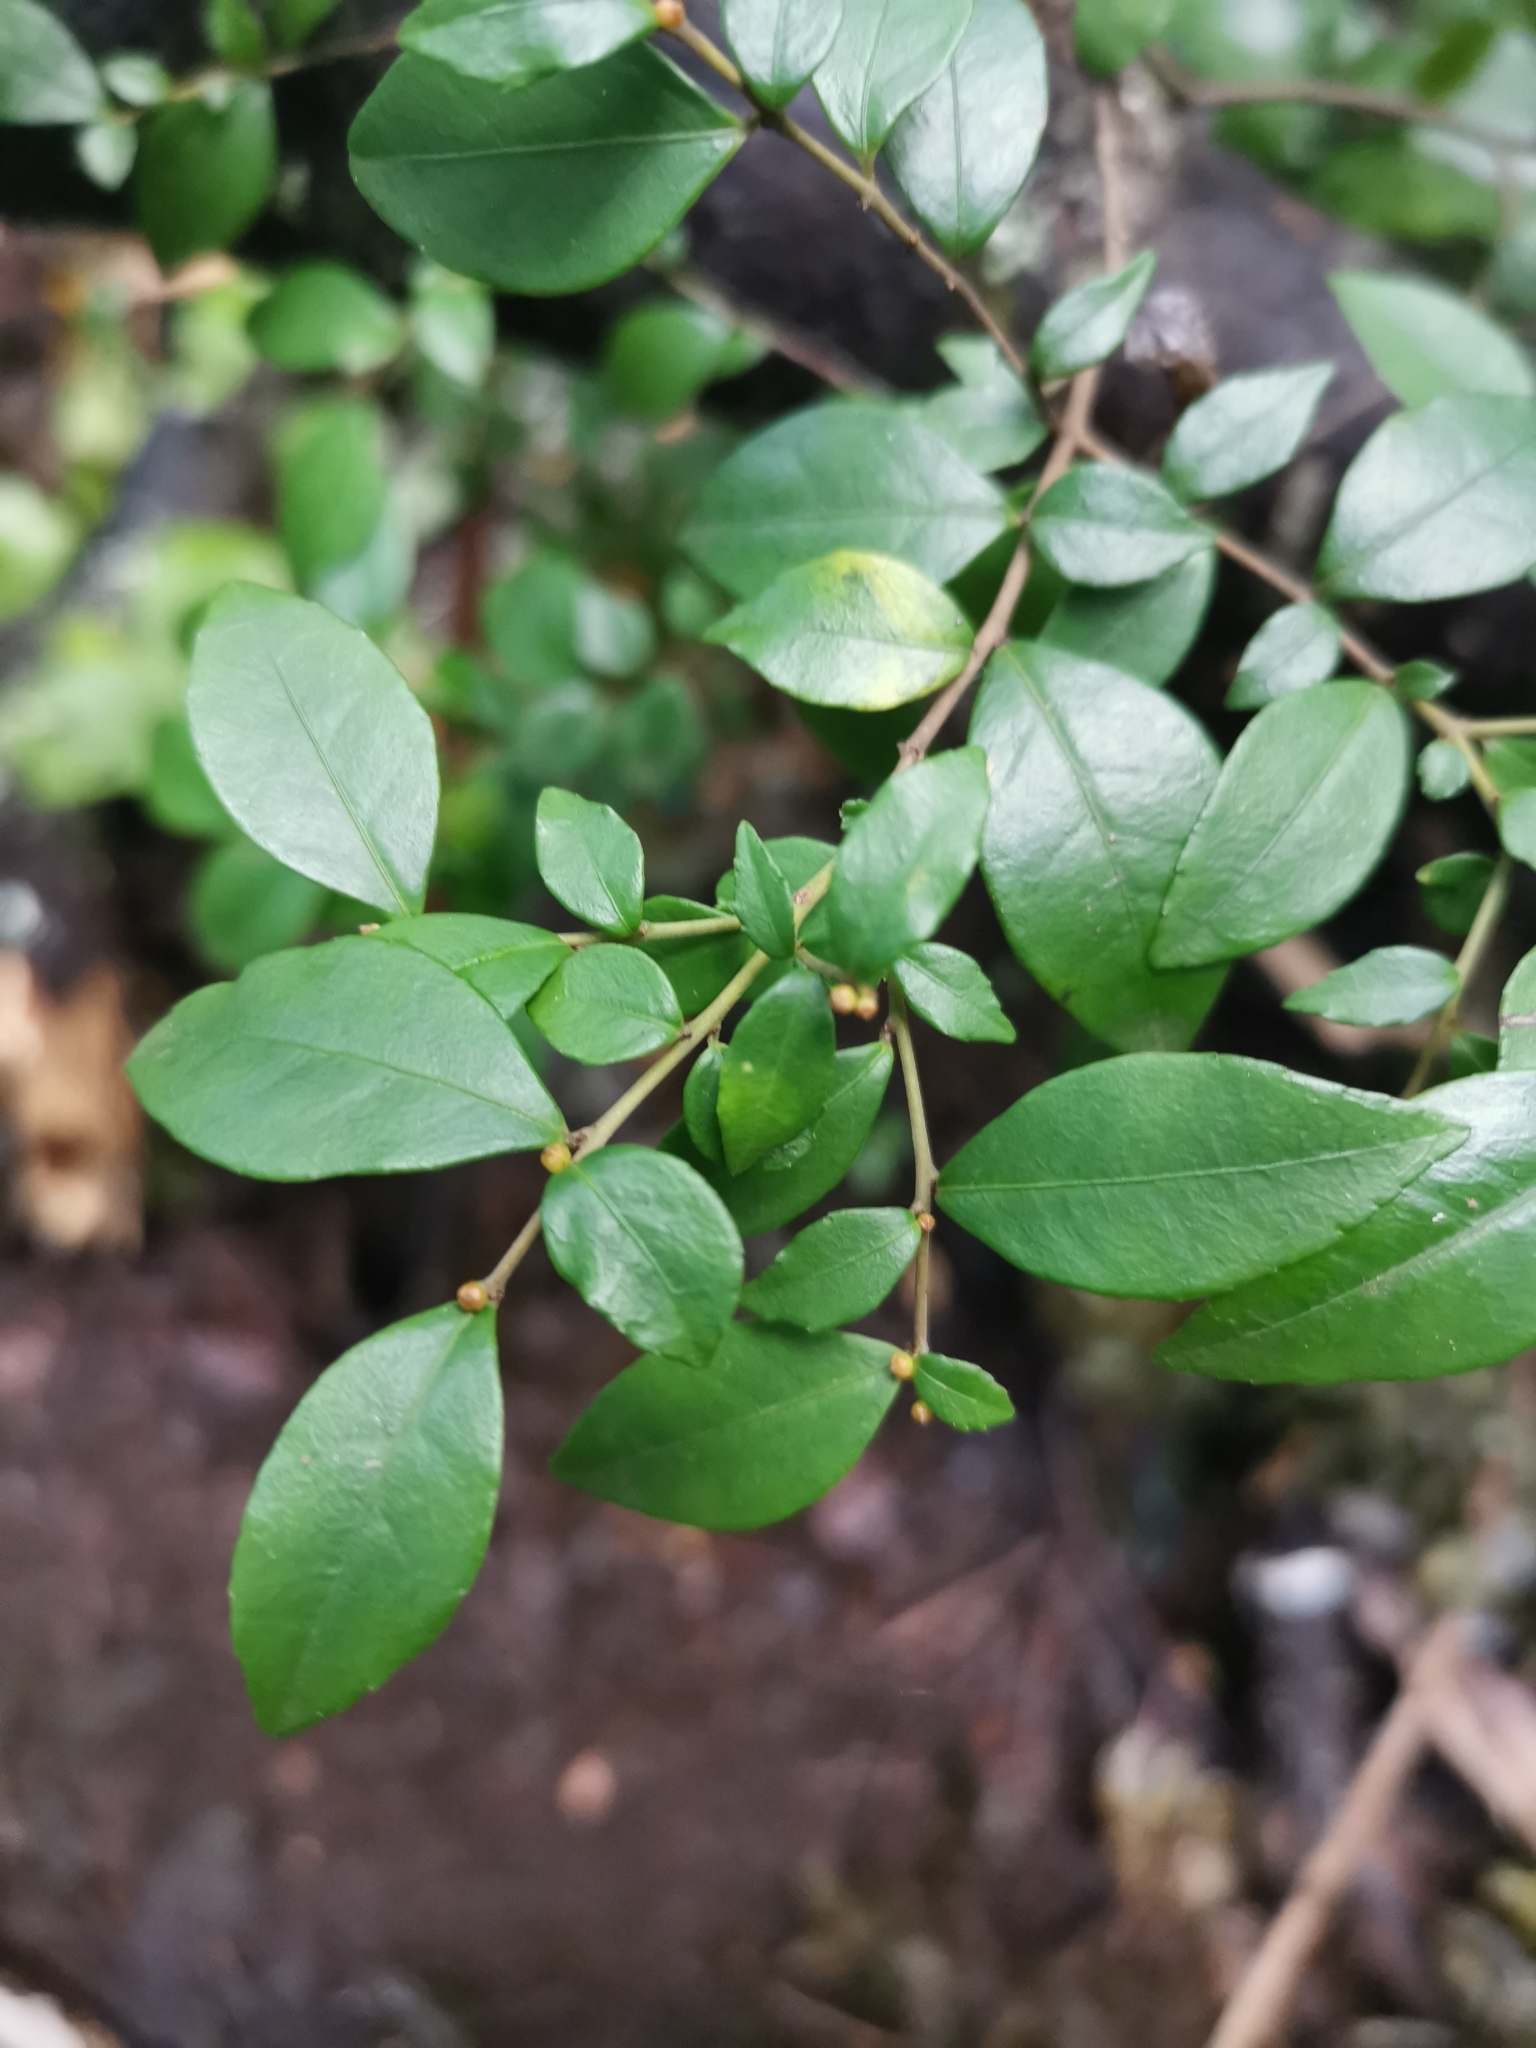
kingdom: Plantae
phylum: Tracheophyta
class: Magnoliopsida
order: Rosales
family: Rhamnaceae
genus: Condalia
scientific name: Condalia maytenoides
